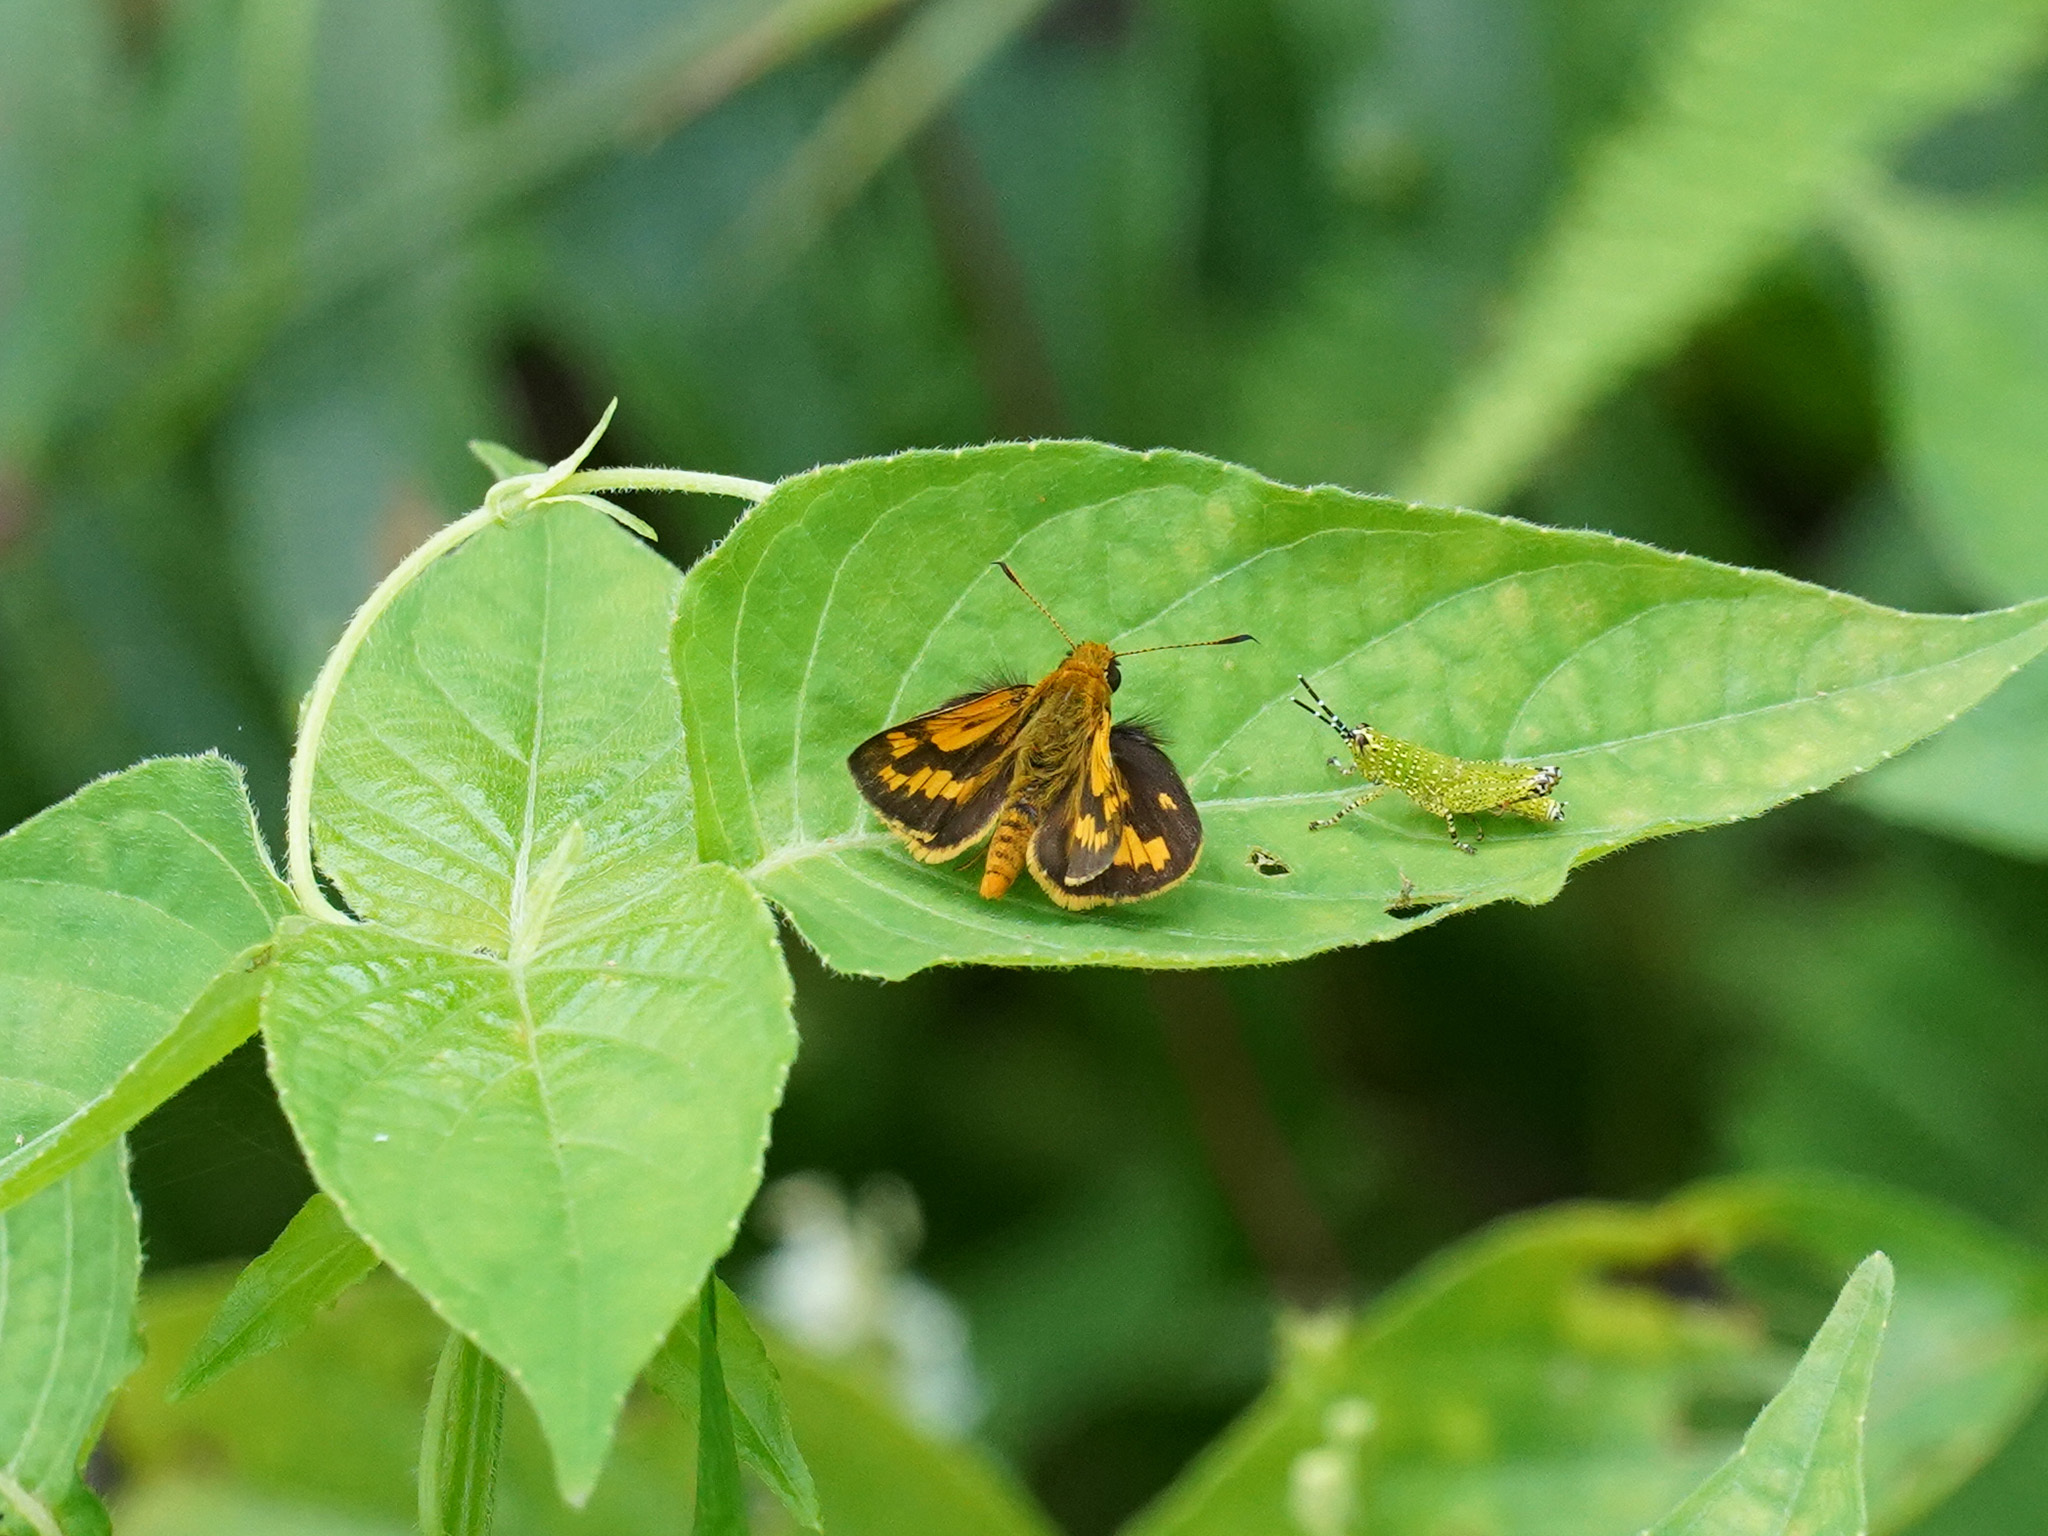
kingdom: Animalia
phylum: Arthropoda
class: Insecta
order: Lepidoptera
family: Hesperiidae
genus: Potanthus
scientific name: Potanthus omaha
